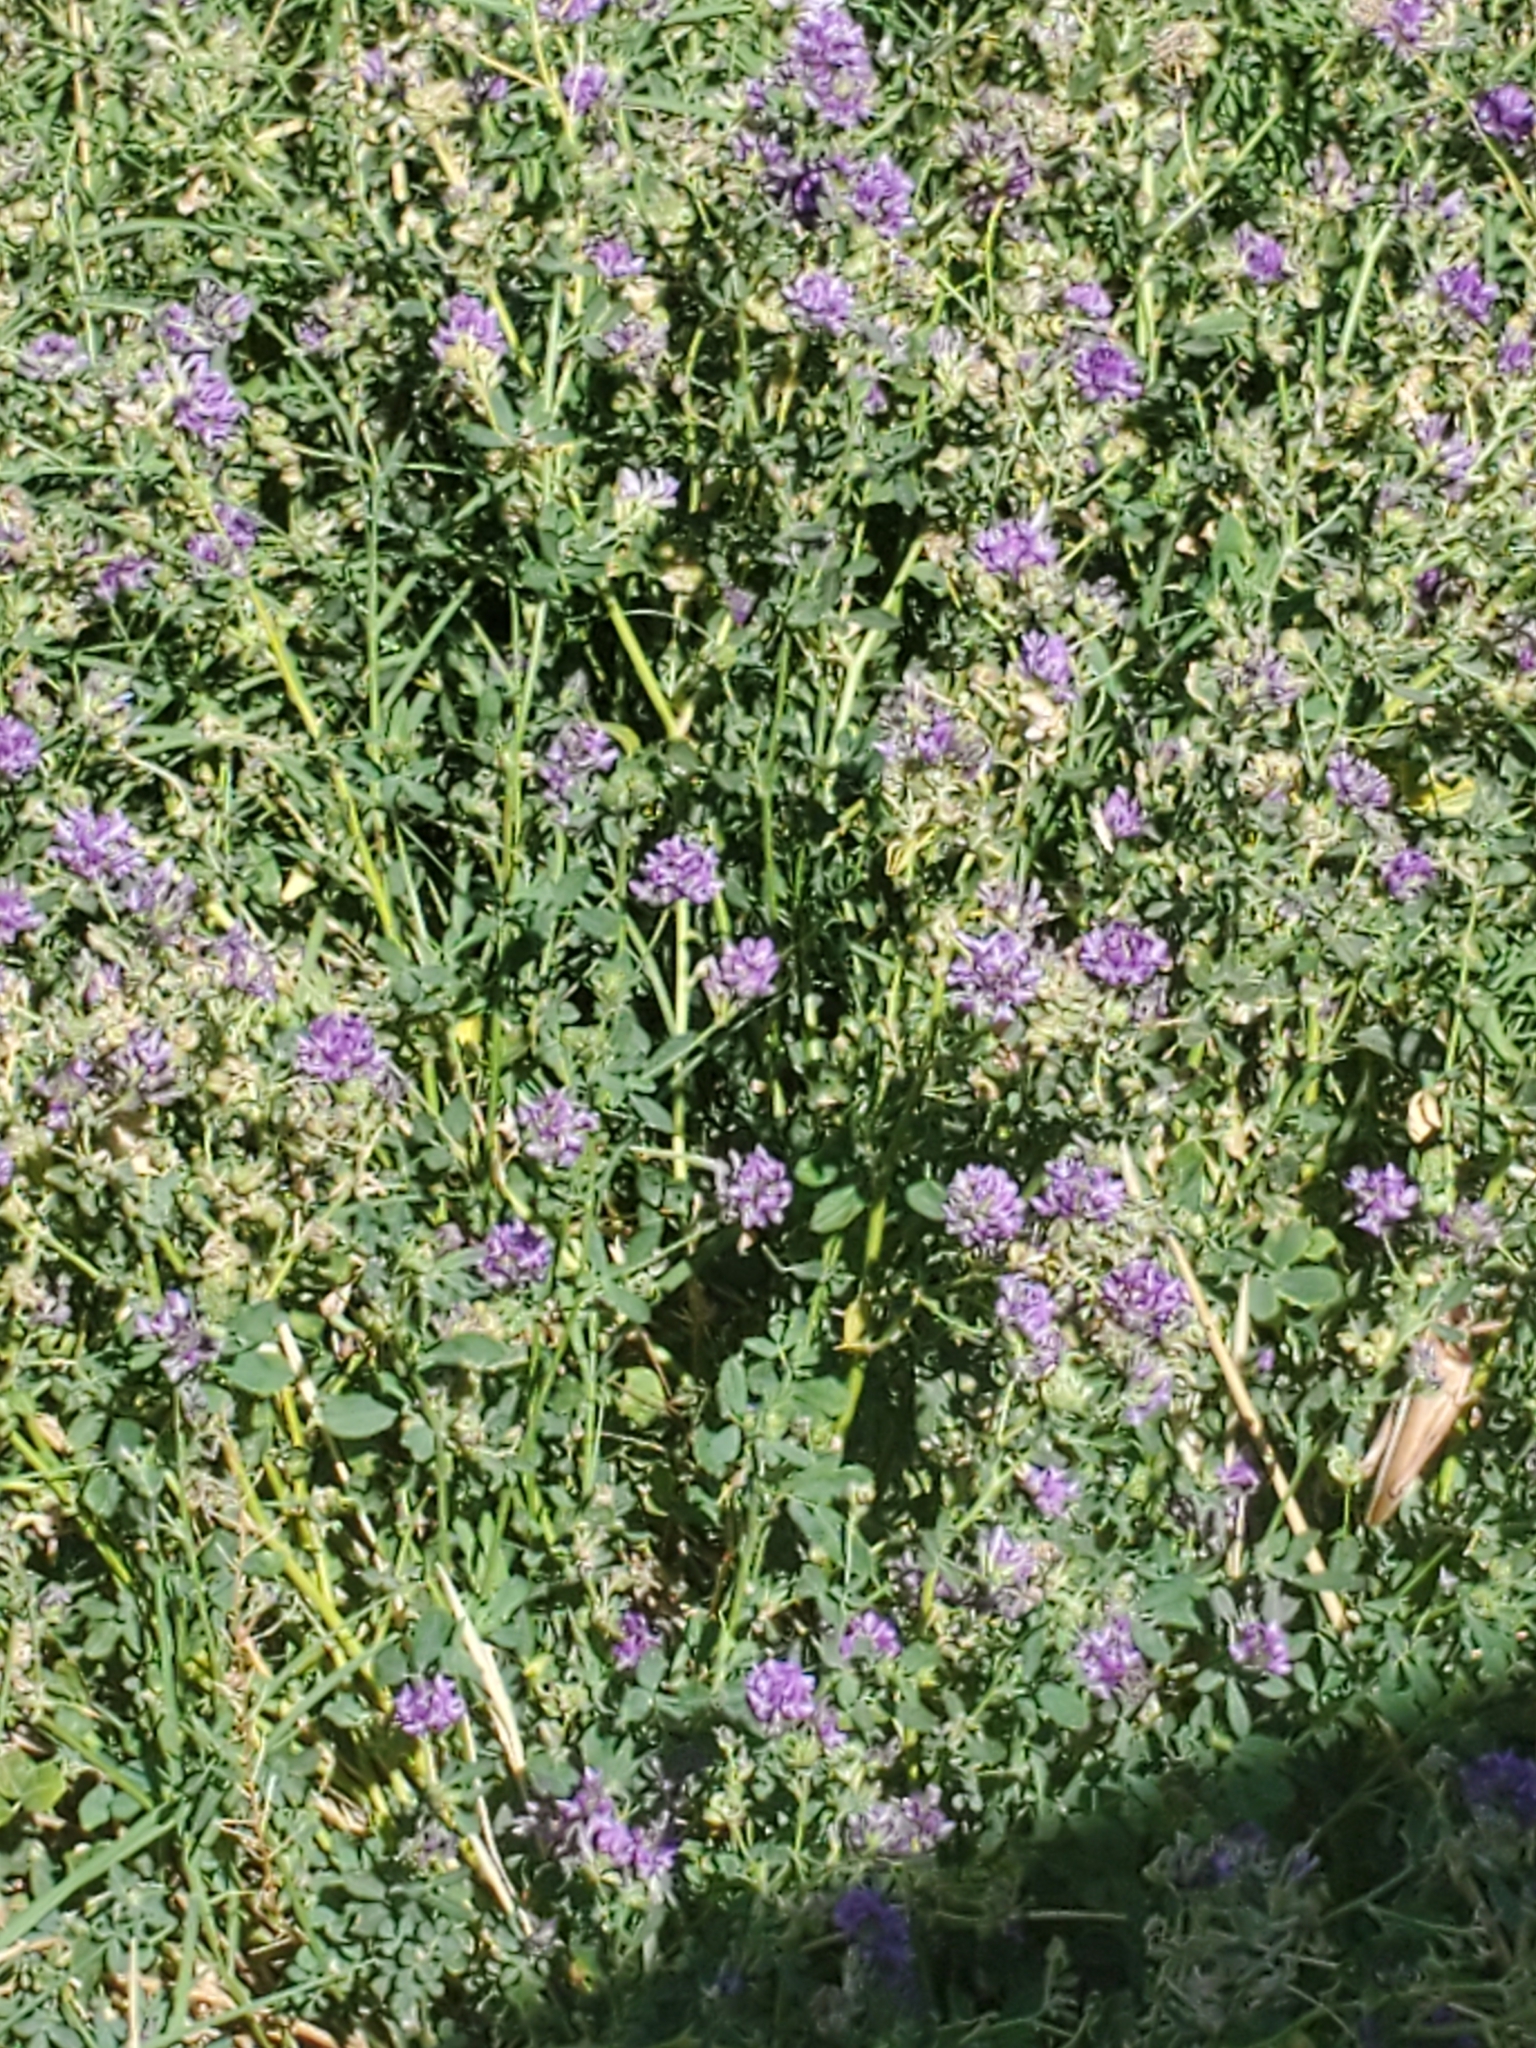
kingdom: Plantae
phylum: Tracheophyta
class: Magnoliopsida
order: Fabales
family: Fabaceae
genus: Medicago
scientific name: Medicago sativa
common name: Alfalfa
